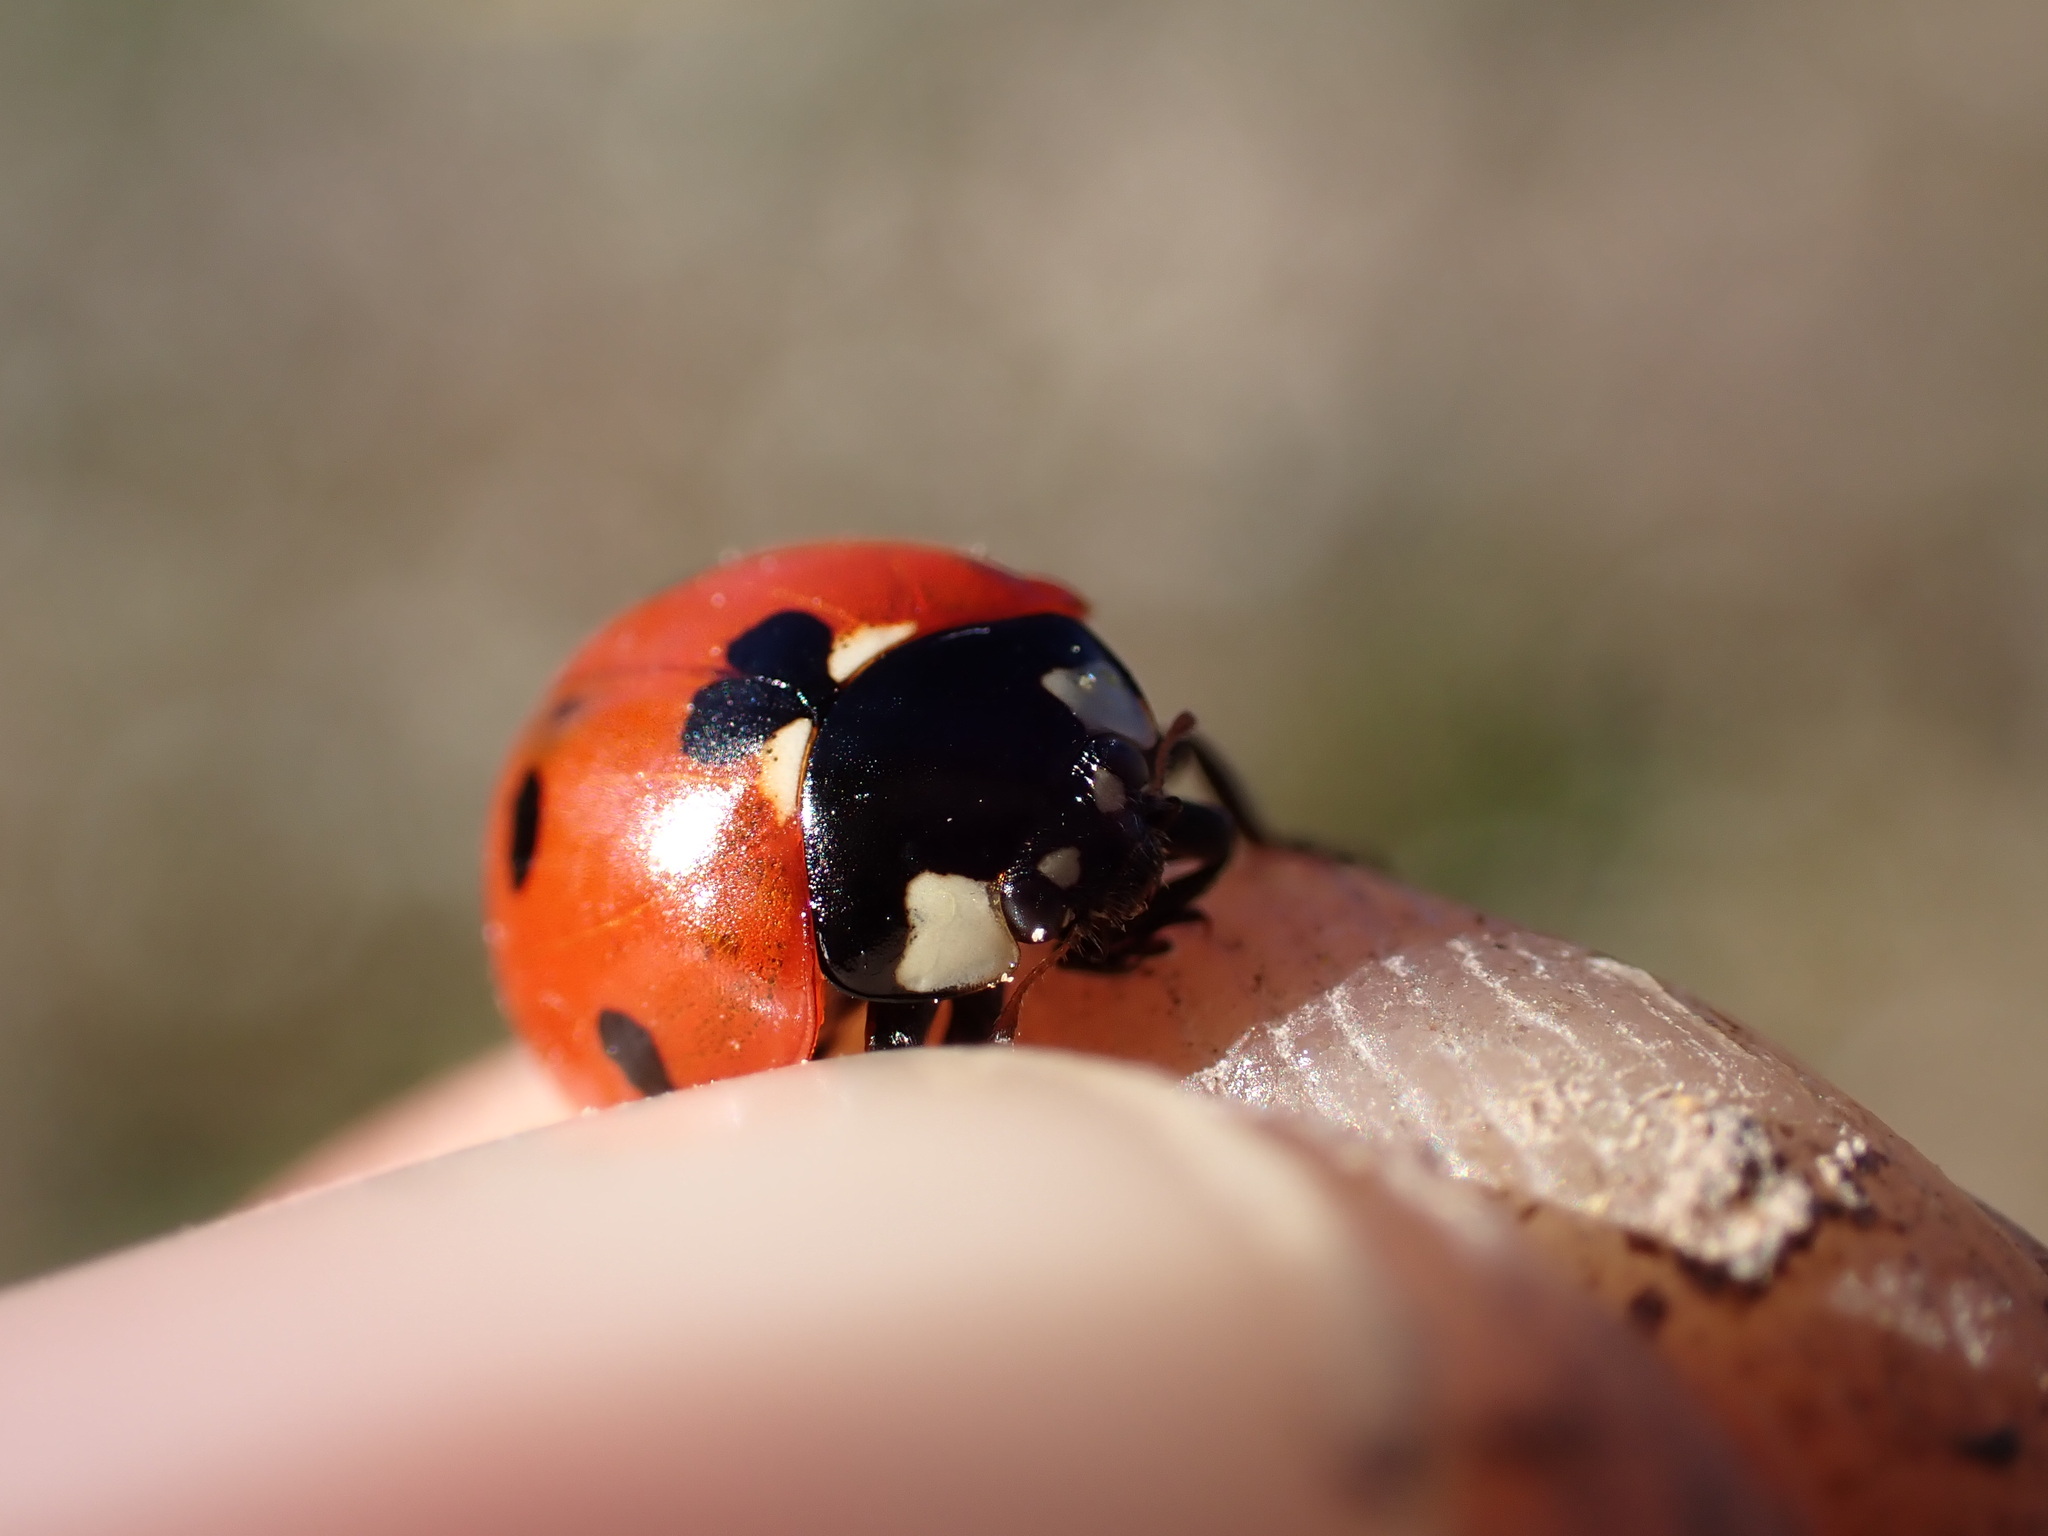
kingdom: Animalia
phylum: Arthropoda
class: Insecta
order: Coleoptera
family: Coccinellidae
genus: Coccinella
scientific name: Coccinella septempunctata
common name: Sevenspotted lady beetle
